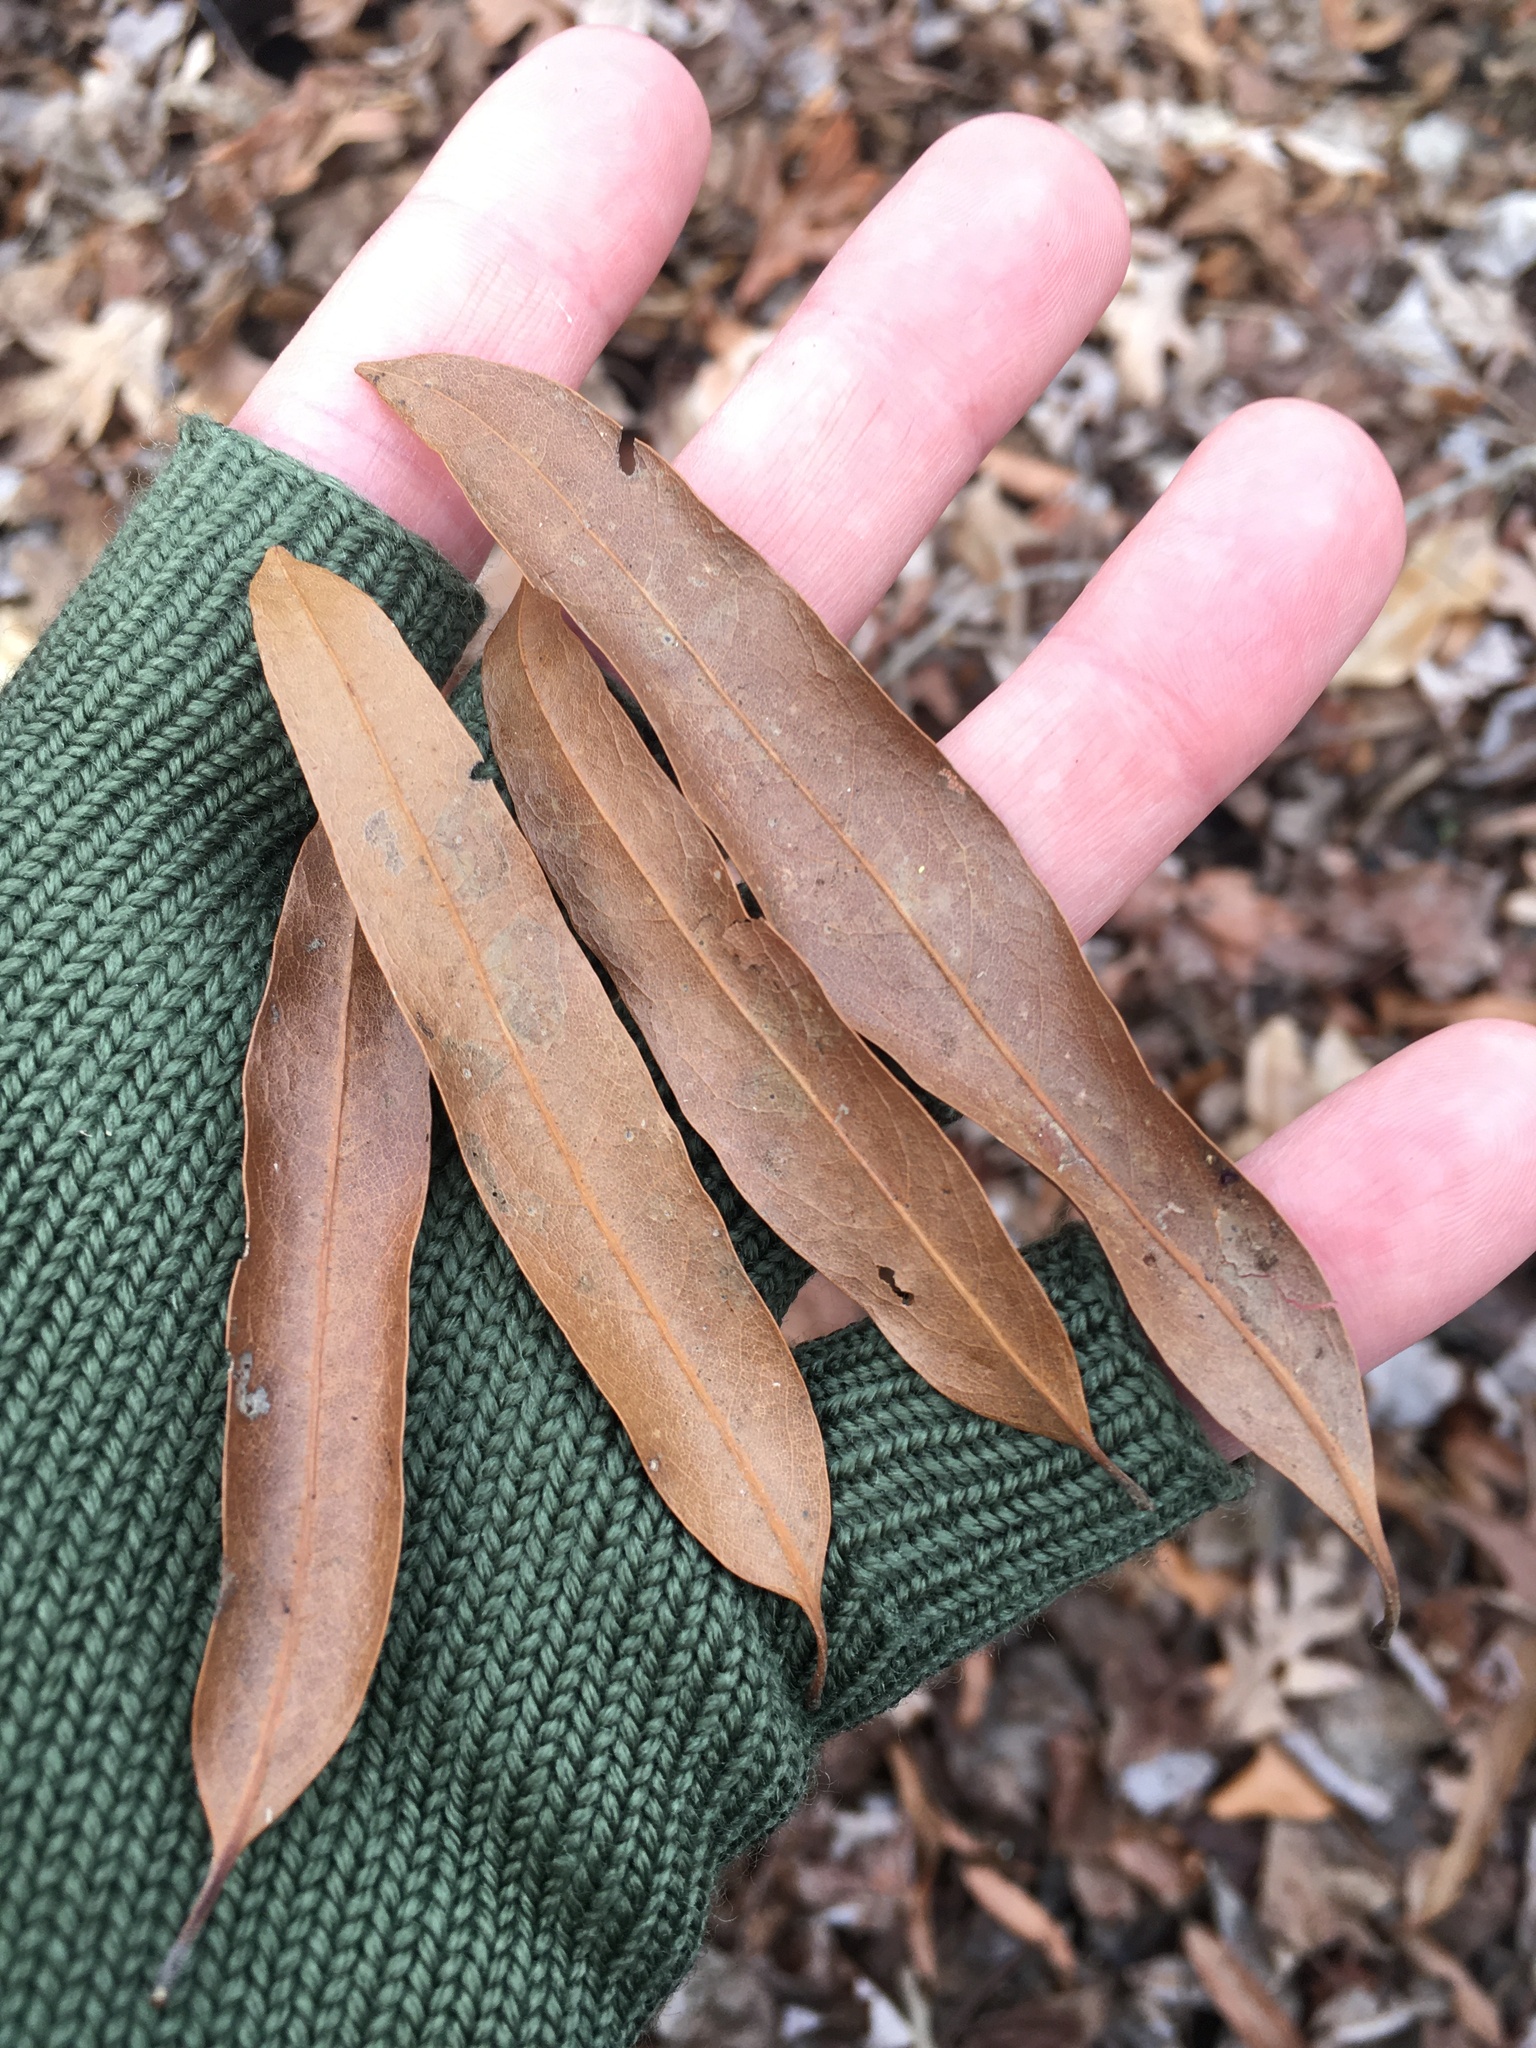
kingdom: Plantae
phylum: Tracheophyta
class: Magnoliopsida
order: Fagales
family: Fagaceae
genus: Quercus
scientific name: Quercus phellos
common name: Willow oak
